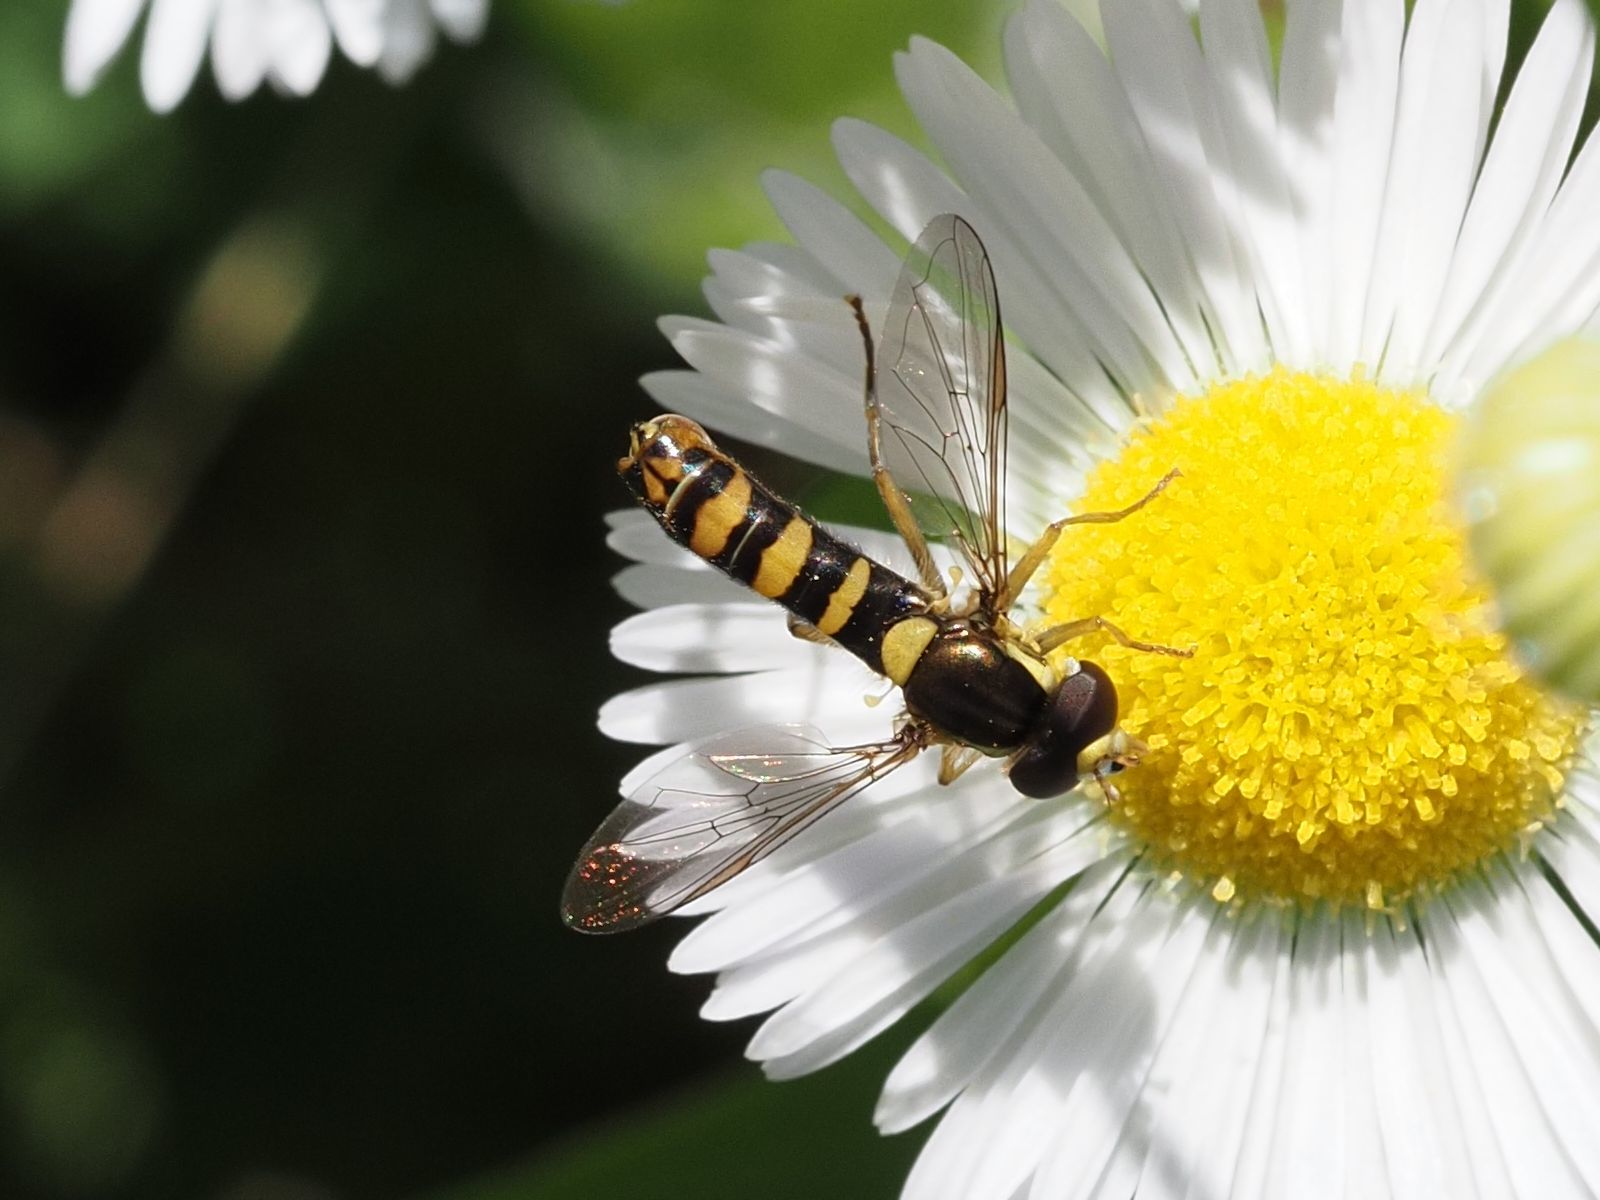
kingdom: Animalia
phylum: Arthropoda
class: Insecta
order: Diptera
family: Syrphidae
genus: Sphaerophoria
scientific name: Sphaerophoria
